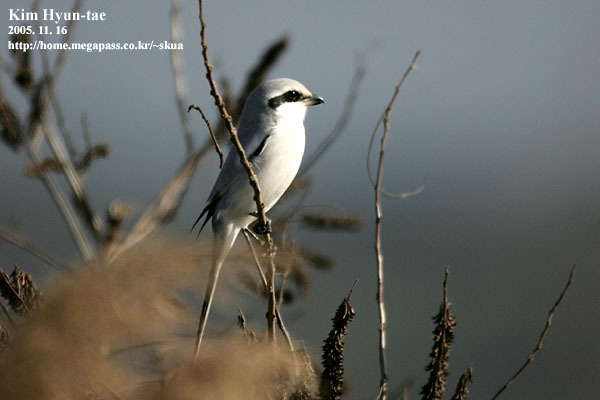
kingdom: Animalia
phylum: Chordata
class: Aves
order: Passeriformes
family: Laniidae
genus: Lanius
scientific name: Lanius sphenocercus
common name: Chinese grey shrike
